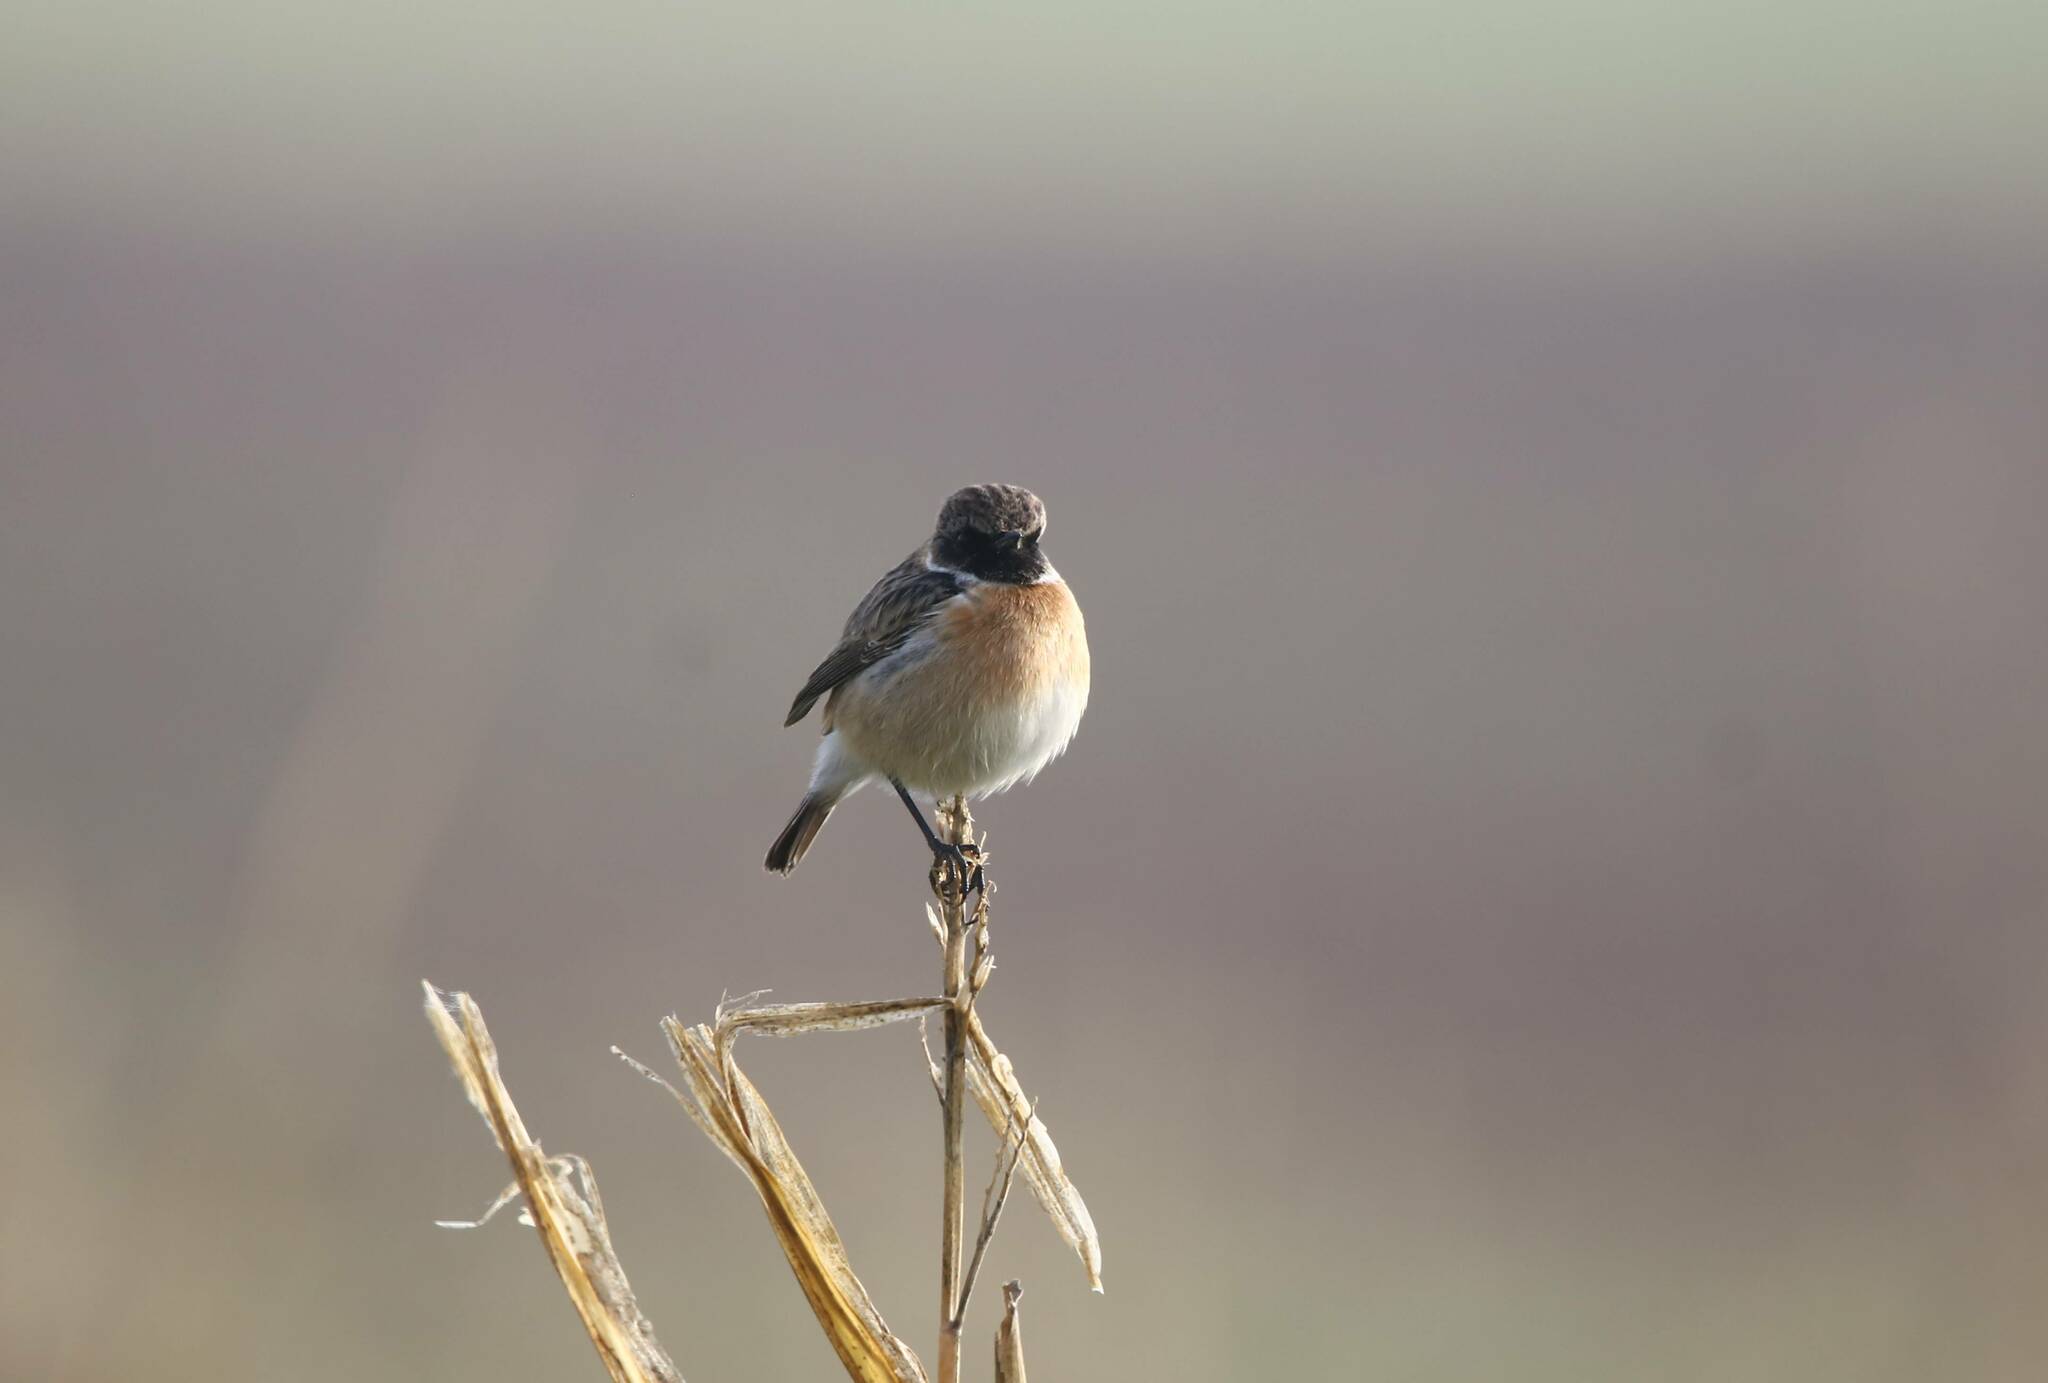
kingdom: Animalia
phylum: Chordata
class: Aves
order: Passeriformes
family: Muscicapidae
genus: Saxicola
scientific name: Saxicola rubicola
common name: European stonechat
